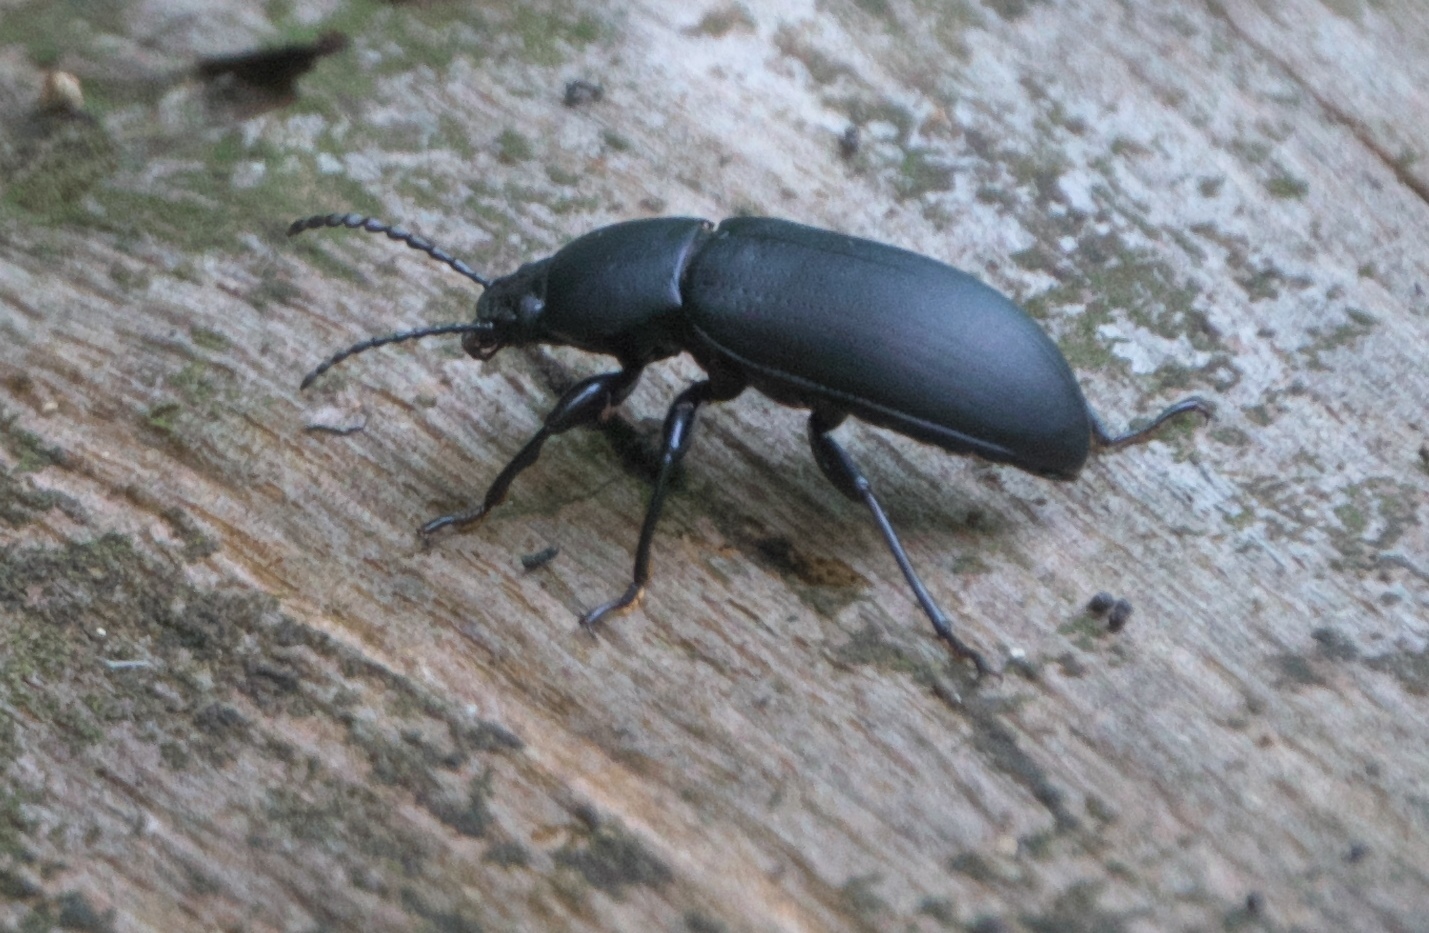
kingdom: Animalia
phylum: Arthropoda
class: Insecta
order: Coleoptera
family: Tenebrionidae
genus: Centronopus
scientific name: Centronopus opacus
